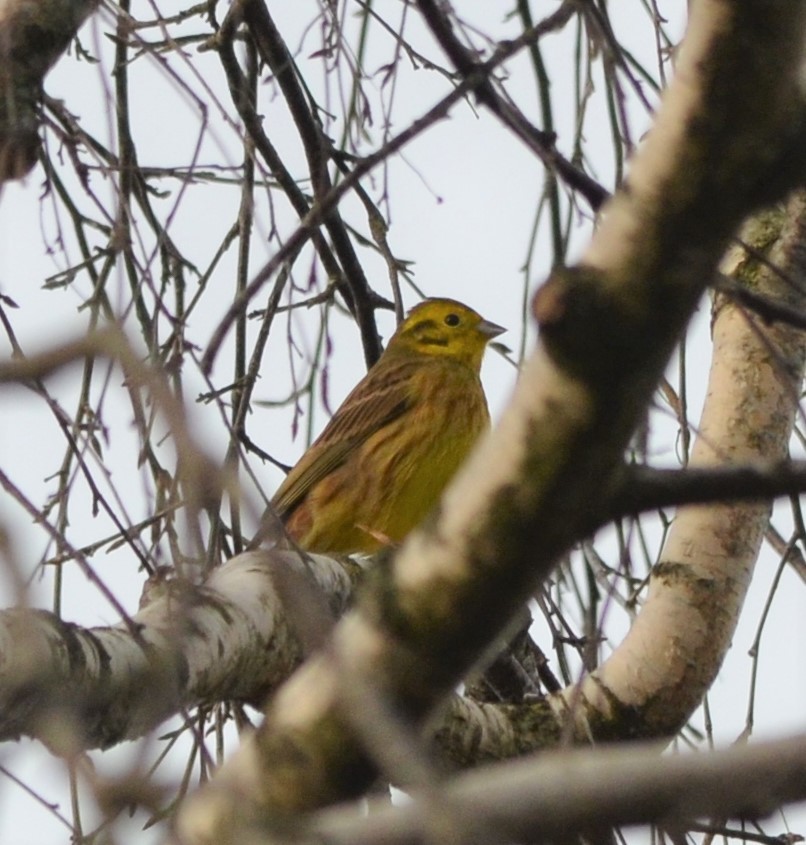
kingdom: Animalia
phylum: Chordata
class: Aves
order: Passeriformes
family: Emberizidae
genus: Emberiza
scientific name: Emberiza citrinella
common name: Yellowhammer
